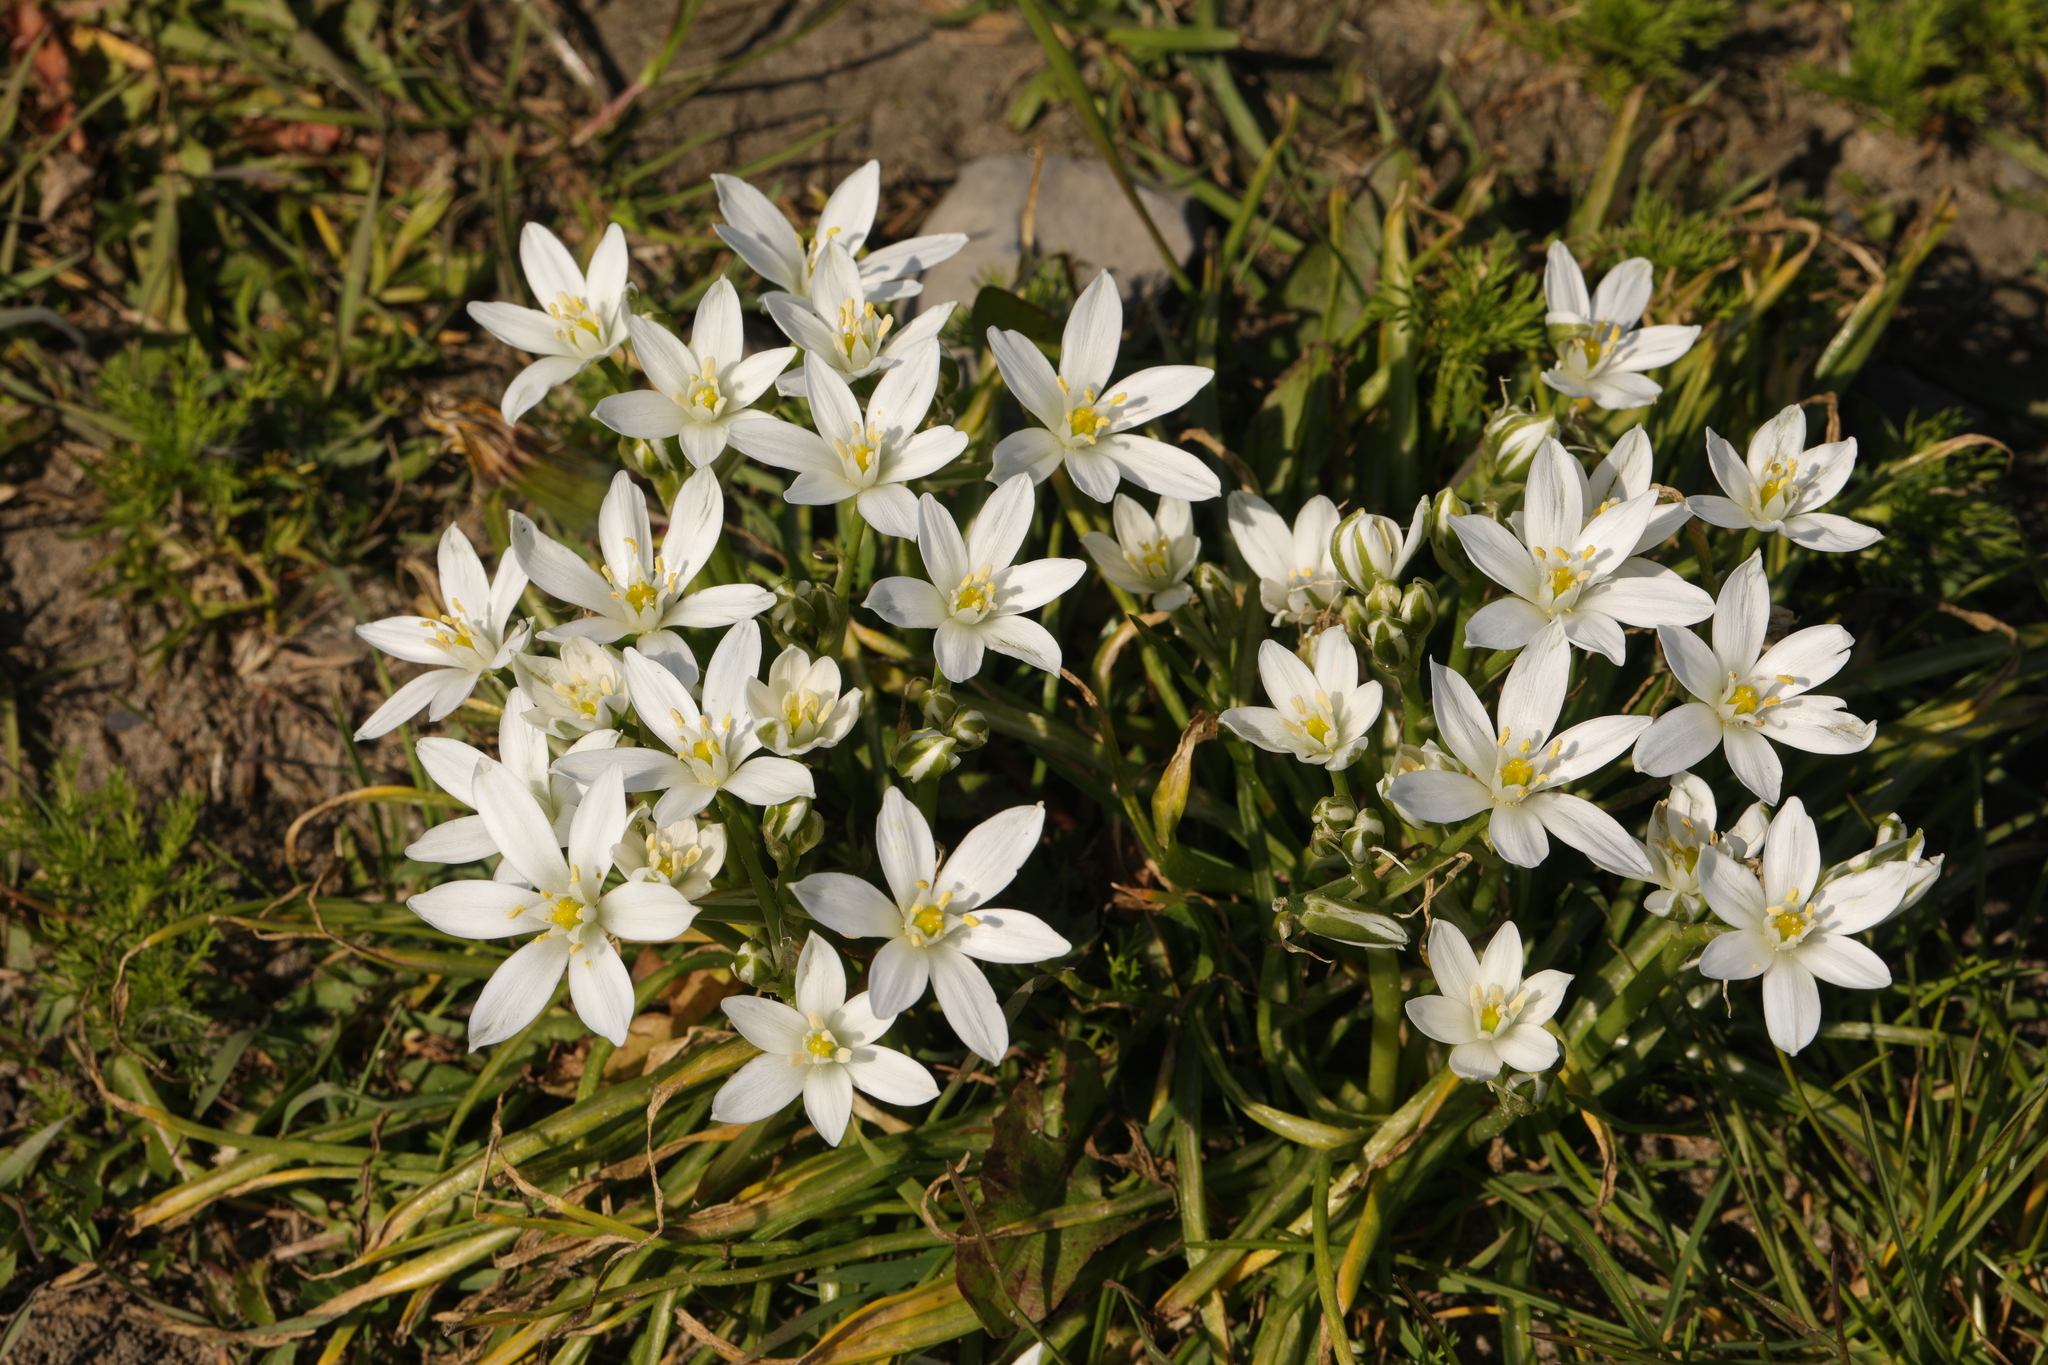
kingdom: Plantae
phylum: Tracheophyta
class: Liliopsida
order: Asparagales
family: Asparagaceae
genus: Ornithogalum
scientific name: Ornithogalum umbellatum
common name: Garden star-of-bethlehem
